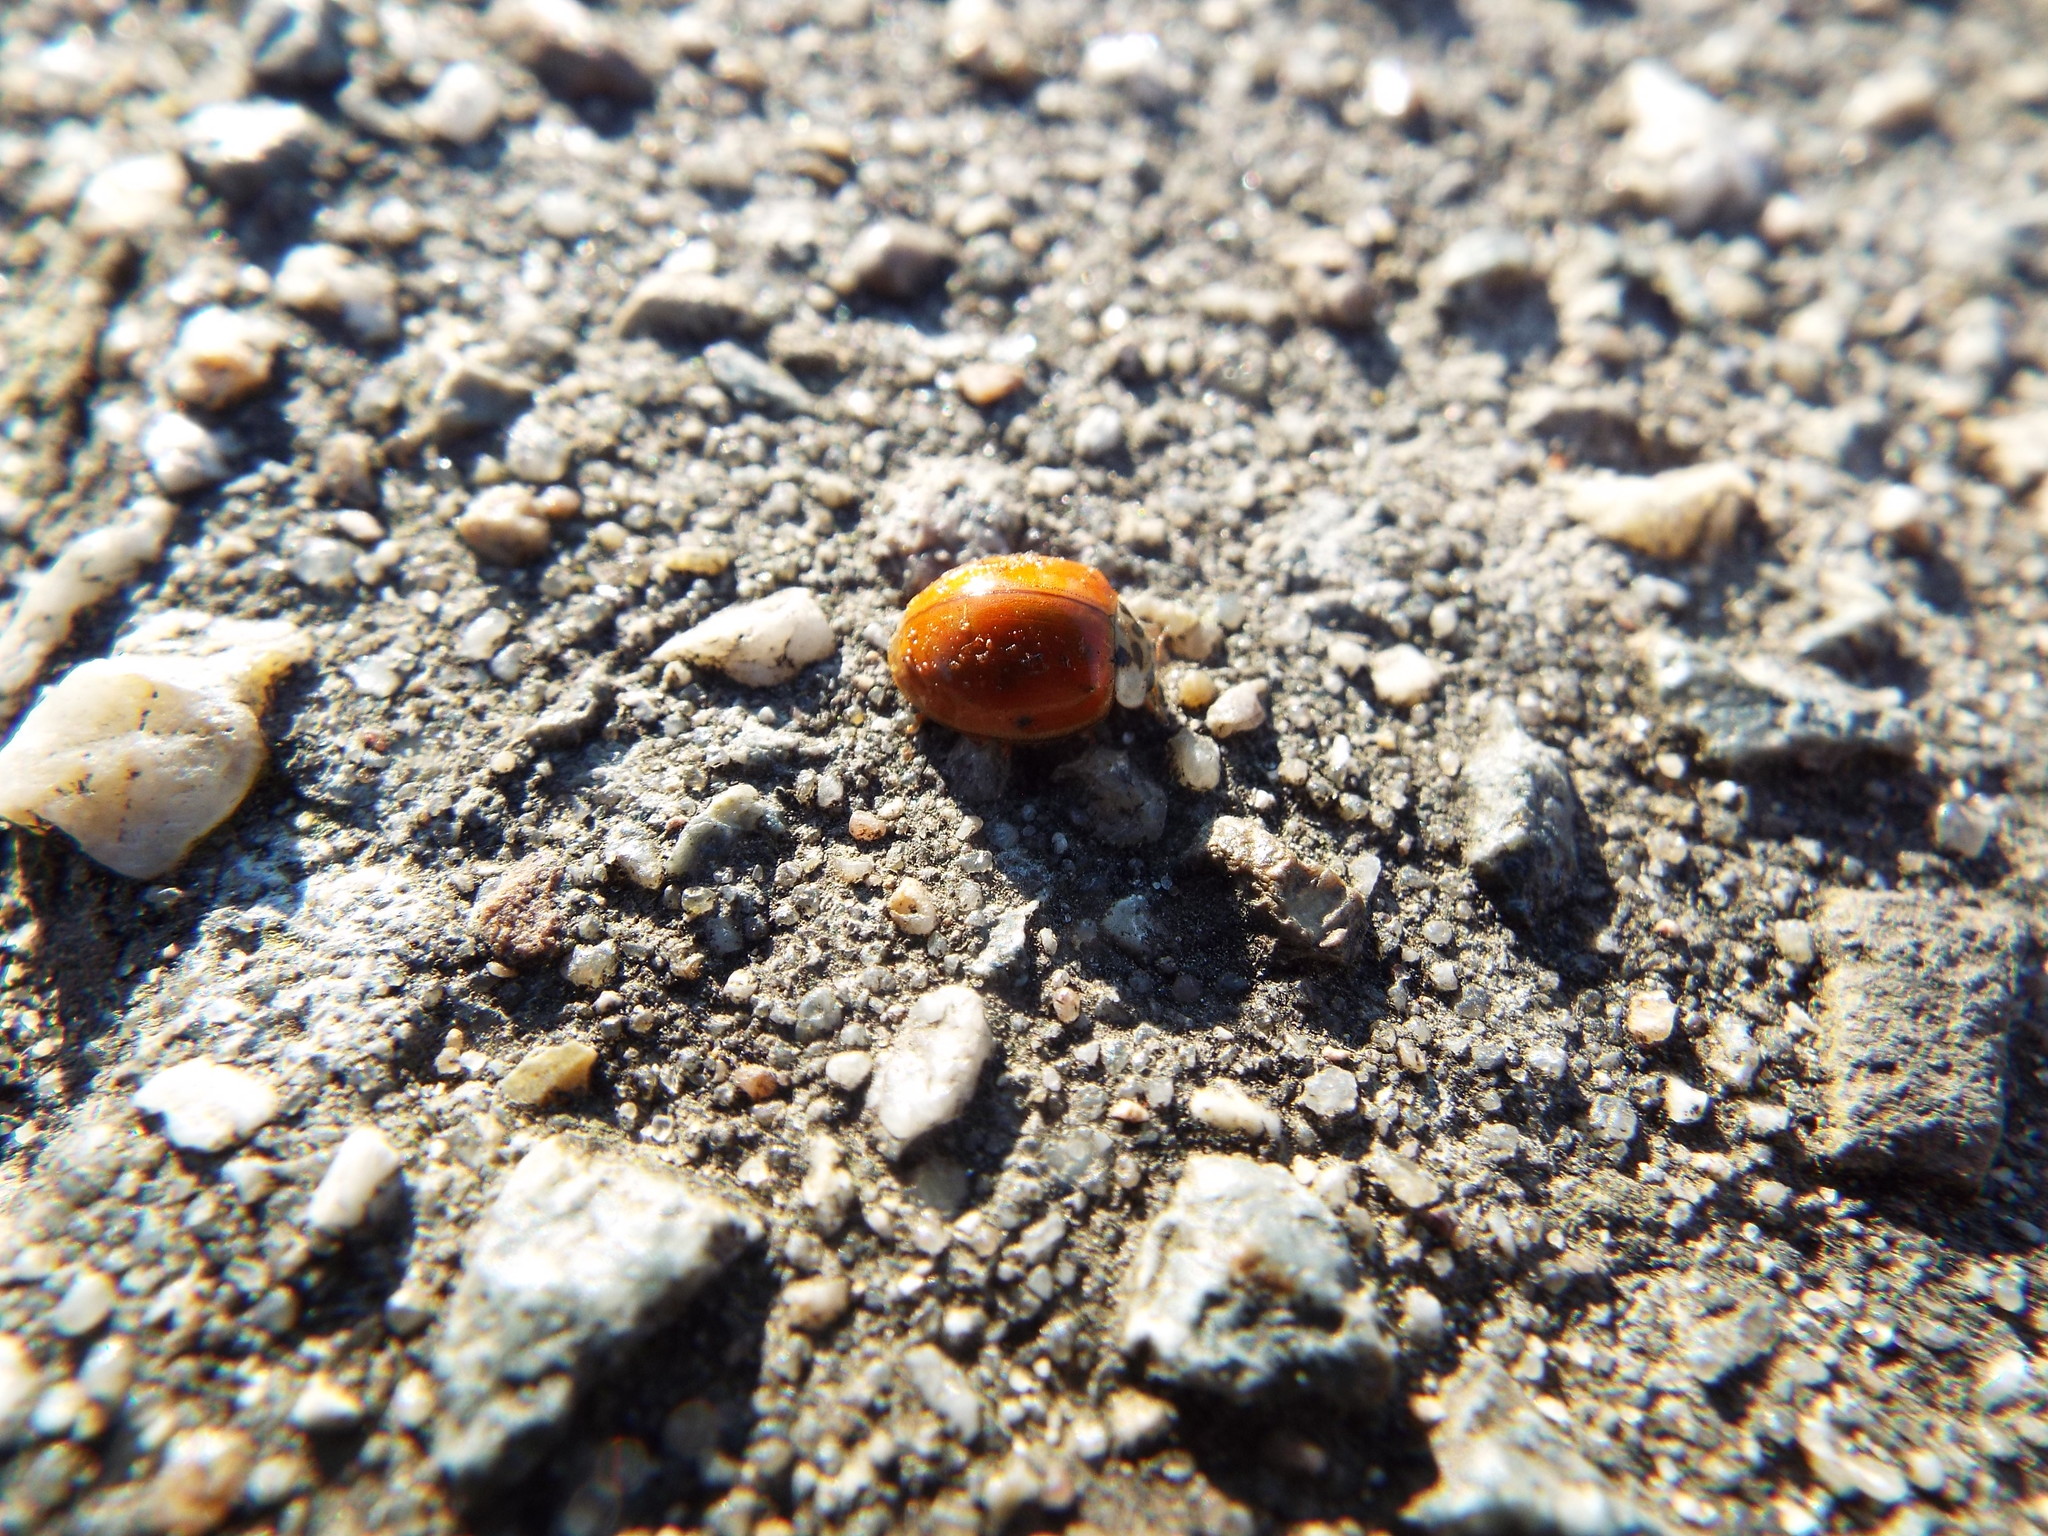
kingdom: Animalia
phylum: Arthropoda
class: Insecta
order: Coleoptera
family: Coccinellidae
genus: Harmonia
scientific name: Harmonia axyridis
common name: Harlequin ladybird
